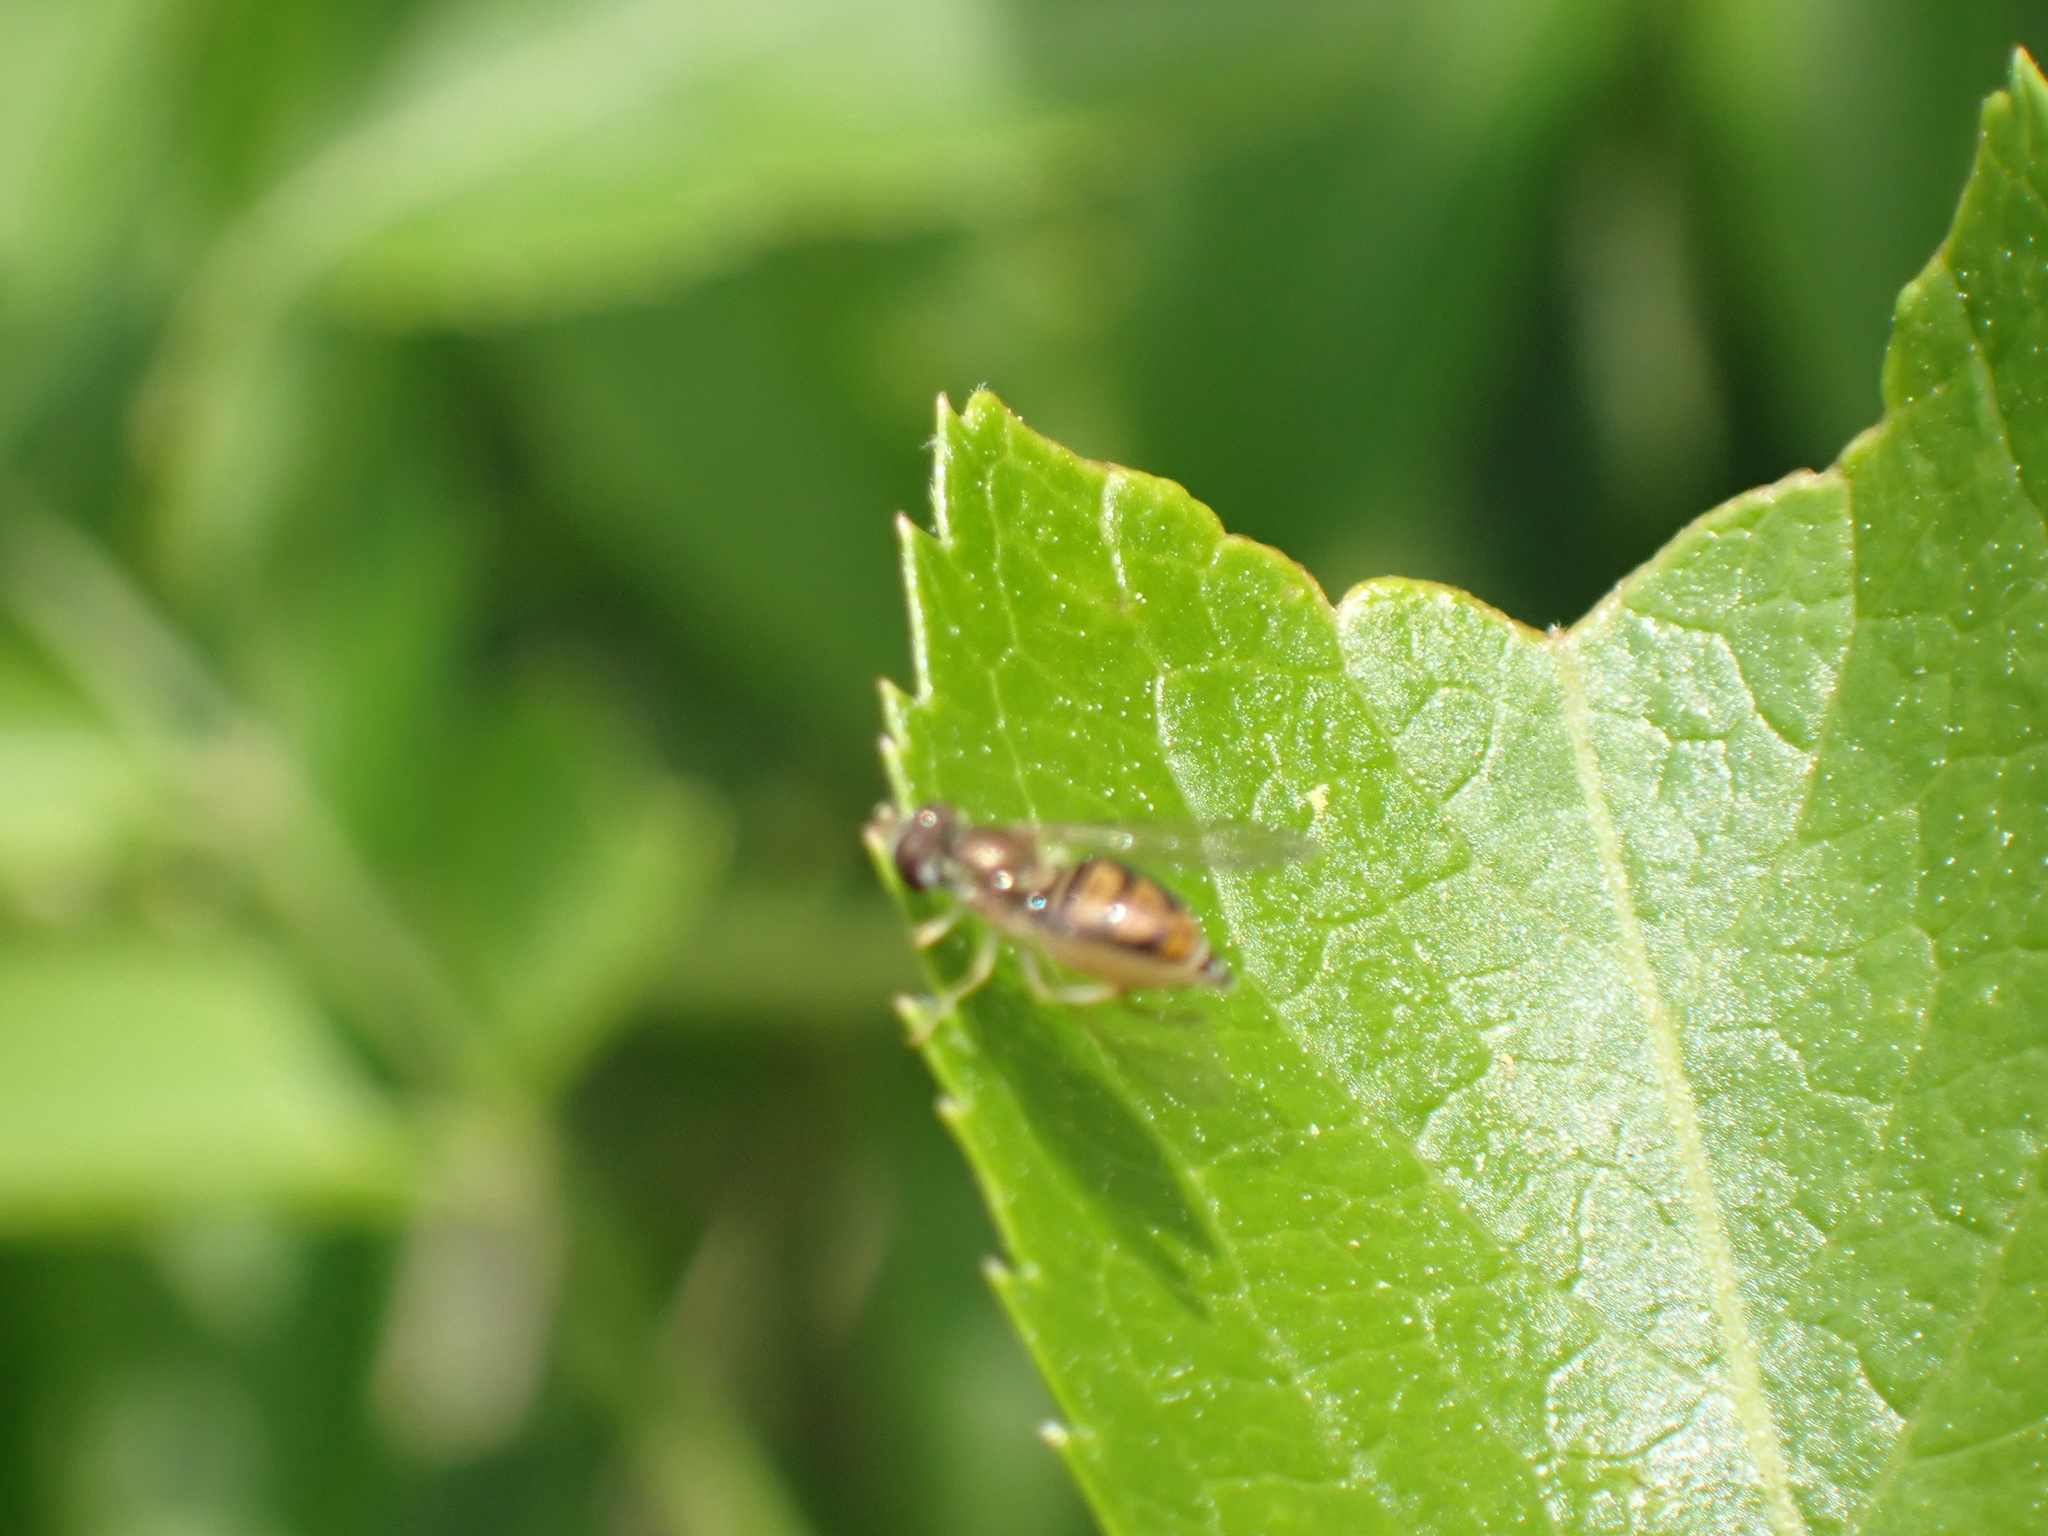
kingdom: Animalia
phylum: Arthropoda
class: Insecta
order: Diptera
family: Syrphidae
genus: Toxomerus
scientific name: Toxomerus marginatus
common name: Syrphid fly
